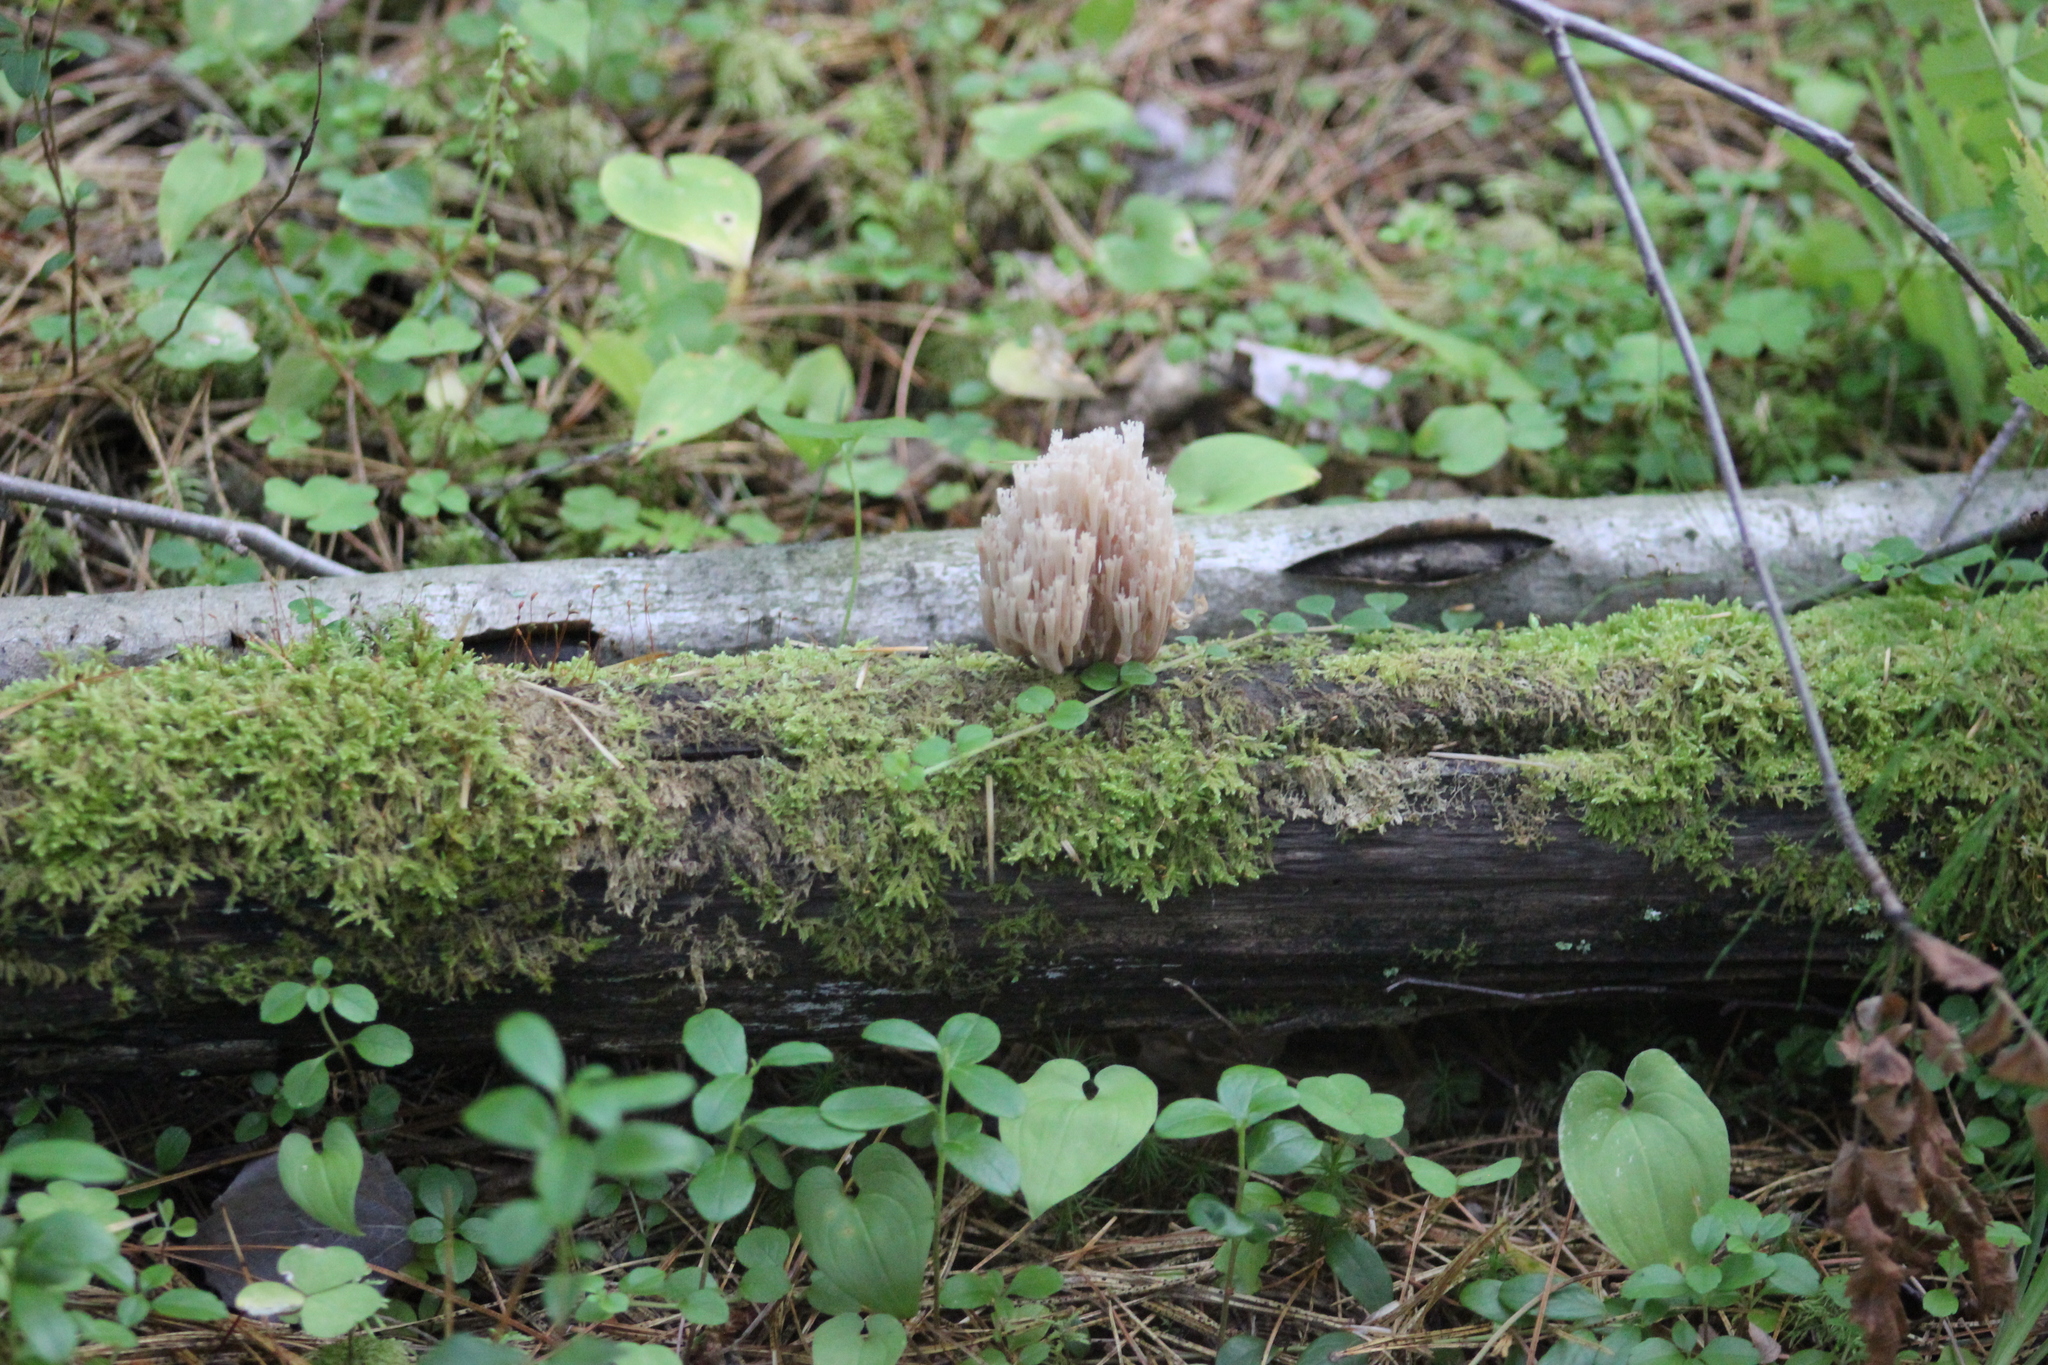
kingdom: Fungi
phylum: Basidiomycota
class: Agaricomycetes
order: Russulales
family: Auriscalpiaceae
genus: Artomyces
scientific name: Artomyces pyxidatus
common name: Crown-tipped coral fungus
